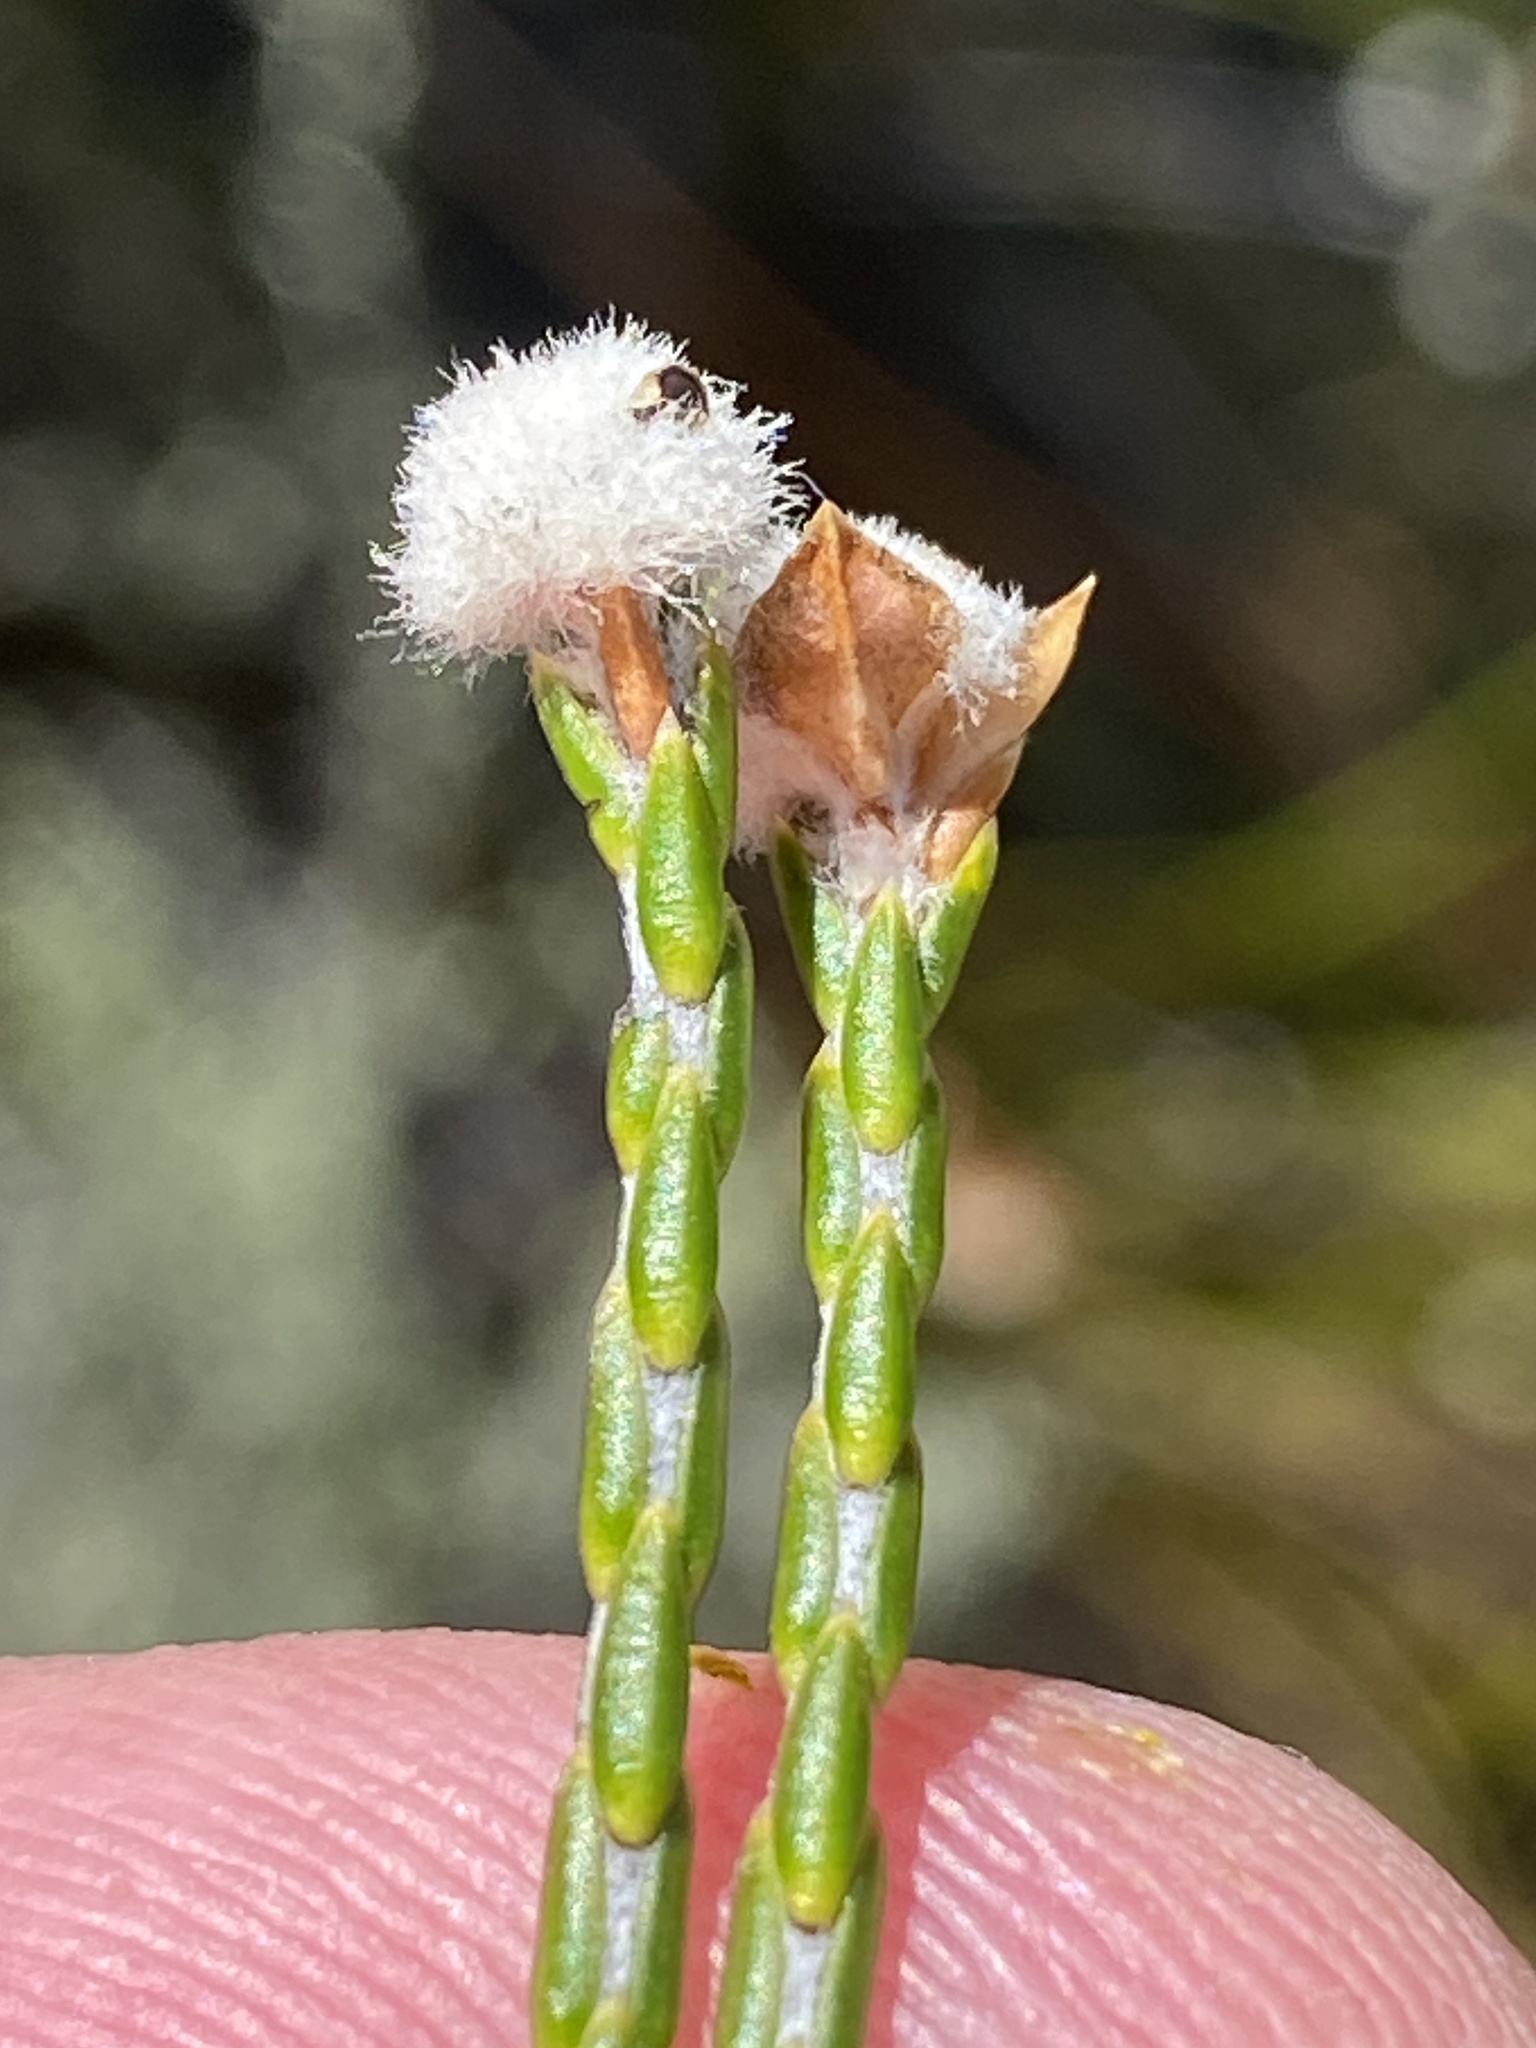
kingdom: Plantae
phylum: Tracheophyta
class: Magnoliopsida
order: Malvales
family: Thymelaeaceae
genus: Lachnaea
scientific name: Lachnaea globulifera
